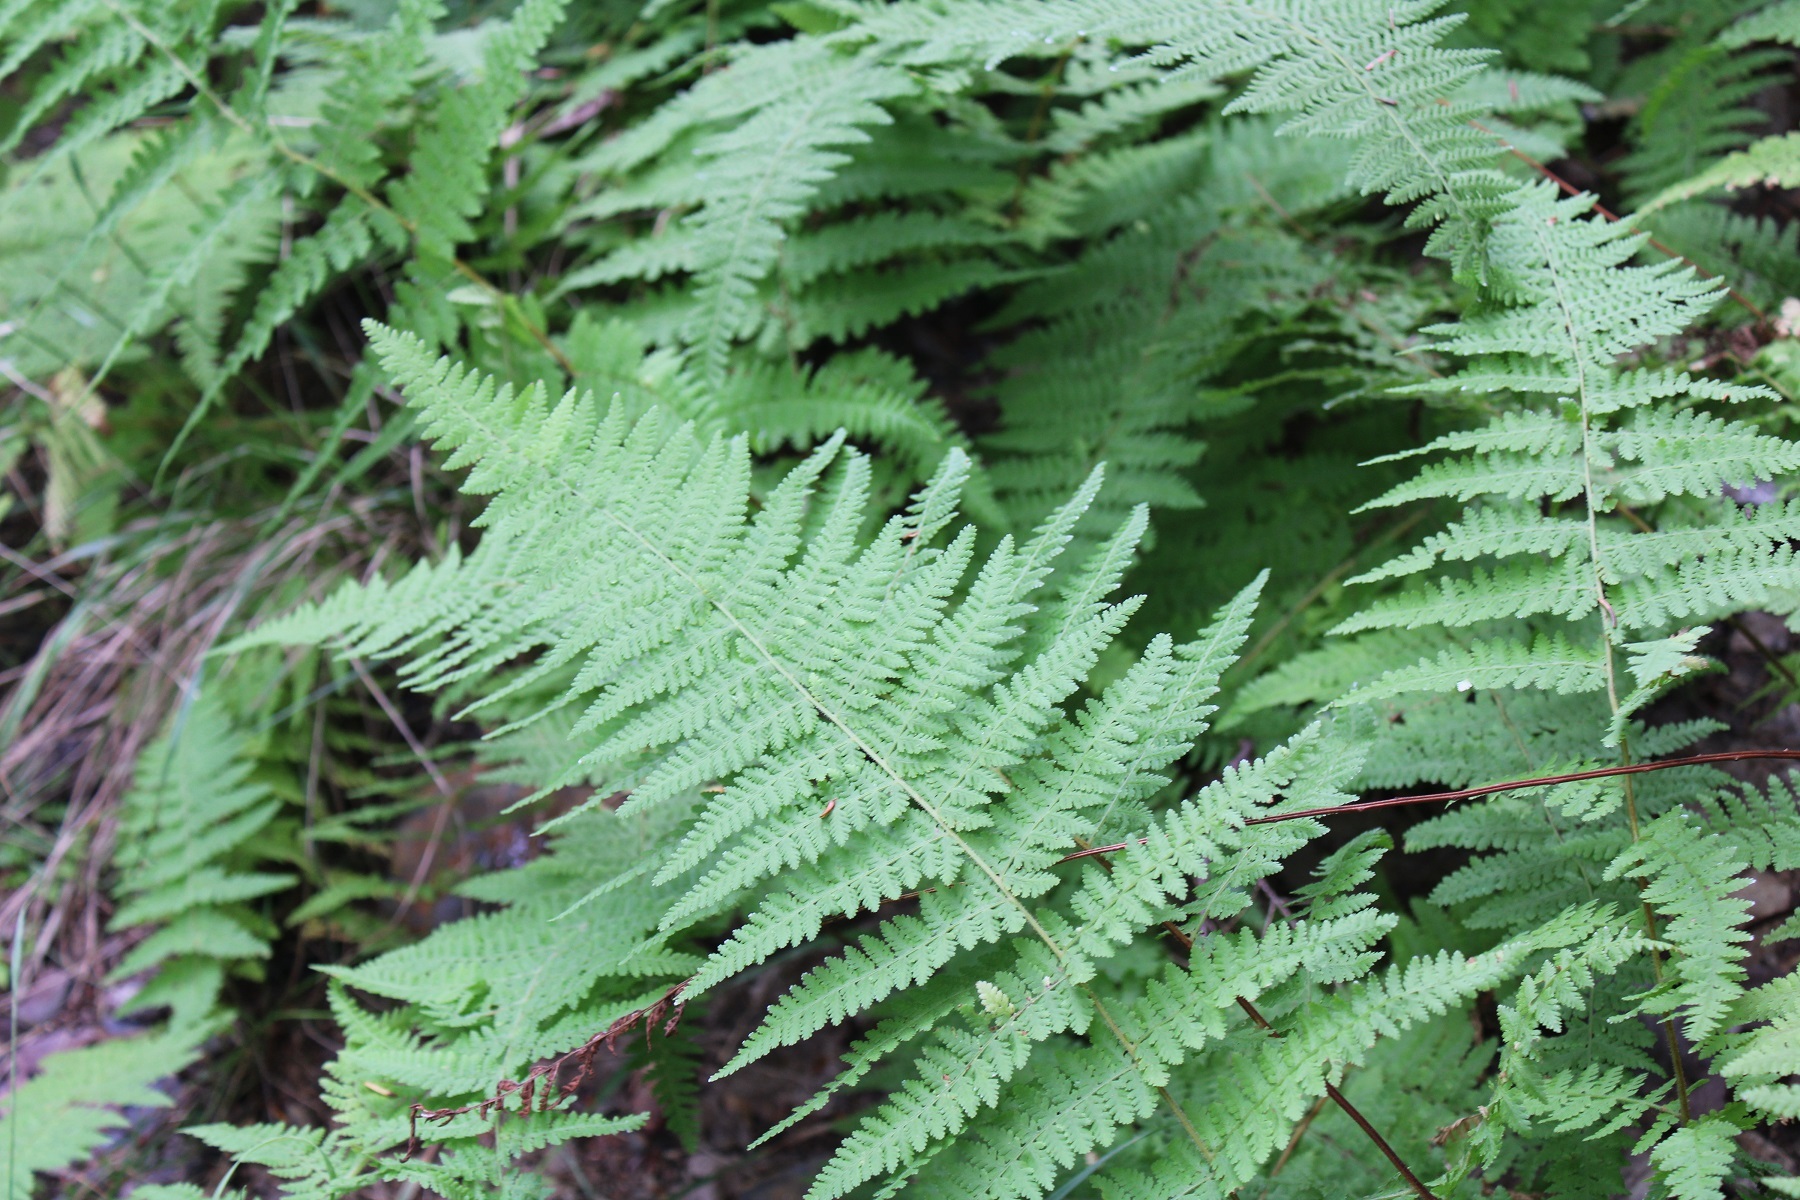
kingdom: Plantae
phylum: Tracheophyta
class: Polypodiopsida
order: Polypodiales
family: Dennstaedtiaceae
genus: Sitobolium
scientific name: Sitobolium punctilobum
